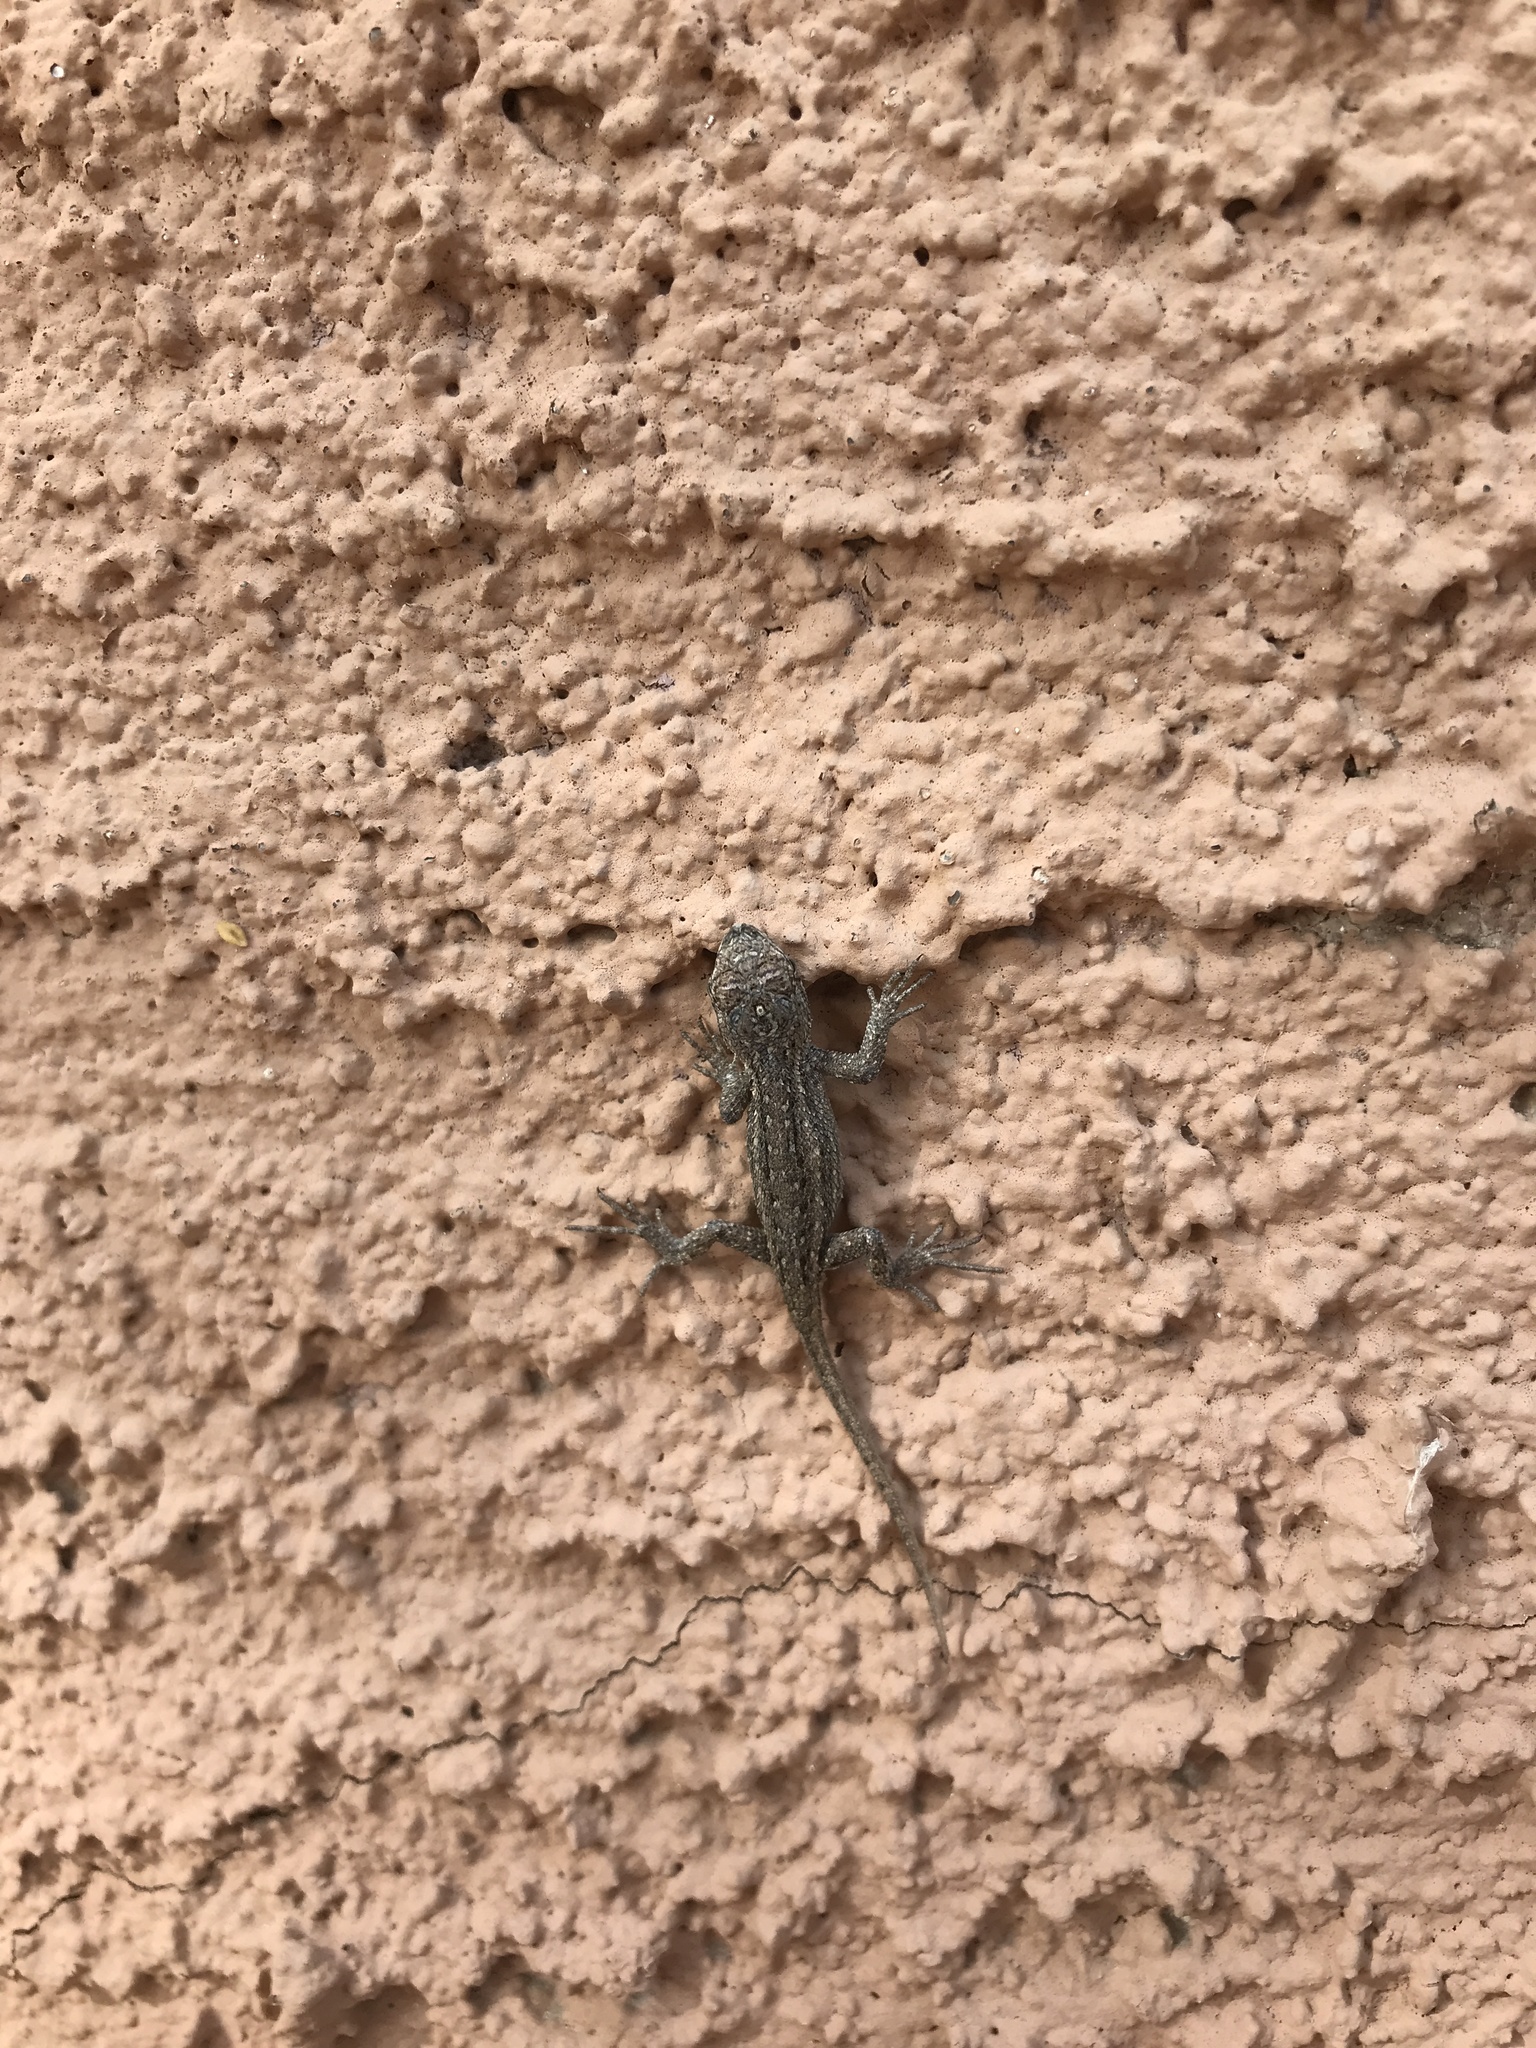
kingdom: Animalia
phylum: Chordata
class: Squamata
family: Phrynosomatidae
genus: Sceloporus
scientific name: Sceloporus cowlesi
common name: White sands prairie lizard
